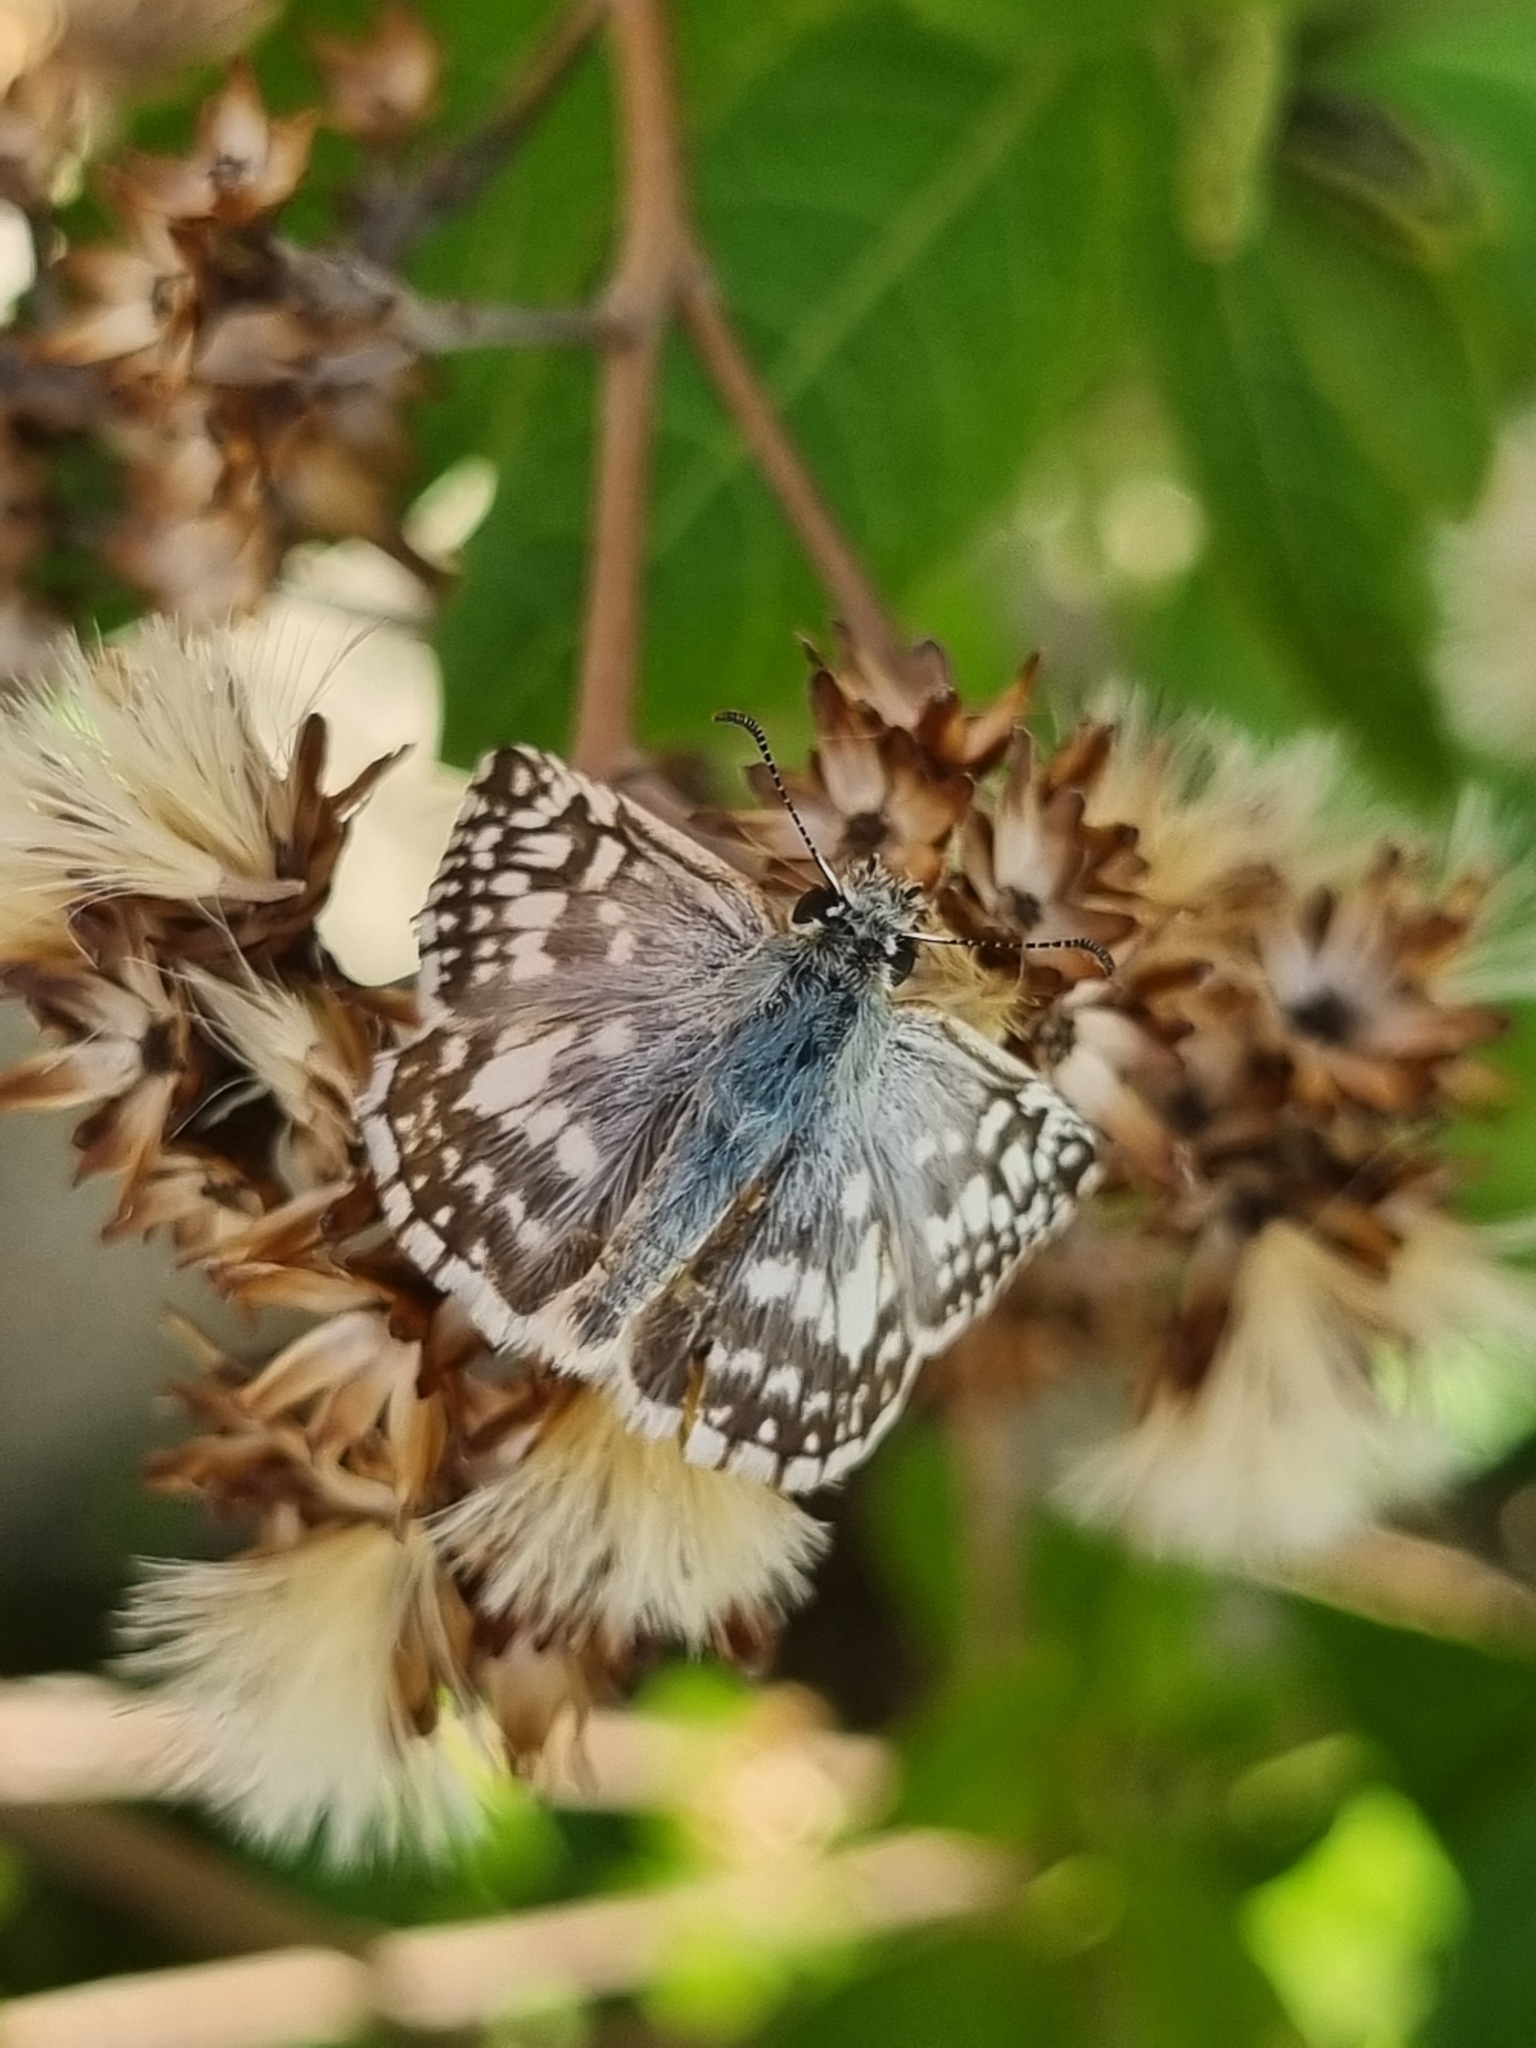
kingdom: Animalia
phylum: Arthropoda
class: Insecta
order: Lepidoptera
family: Hesperiidae
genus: Heliopetes
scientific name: Heliopetes americanus
